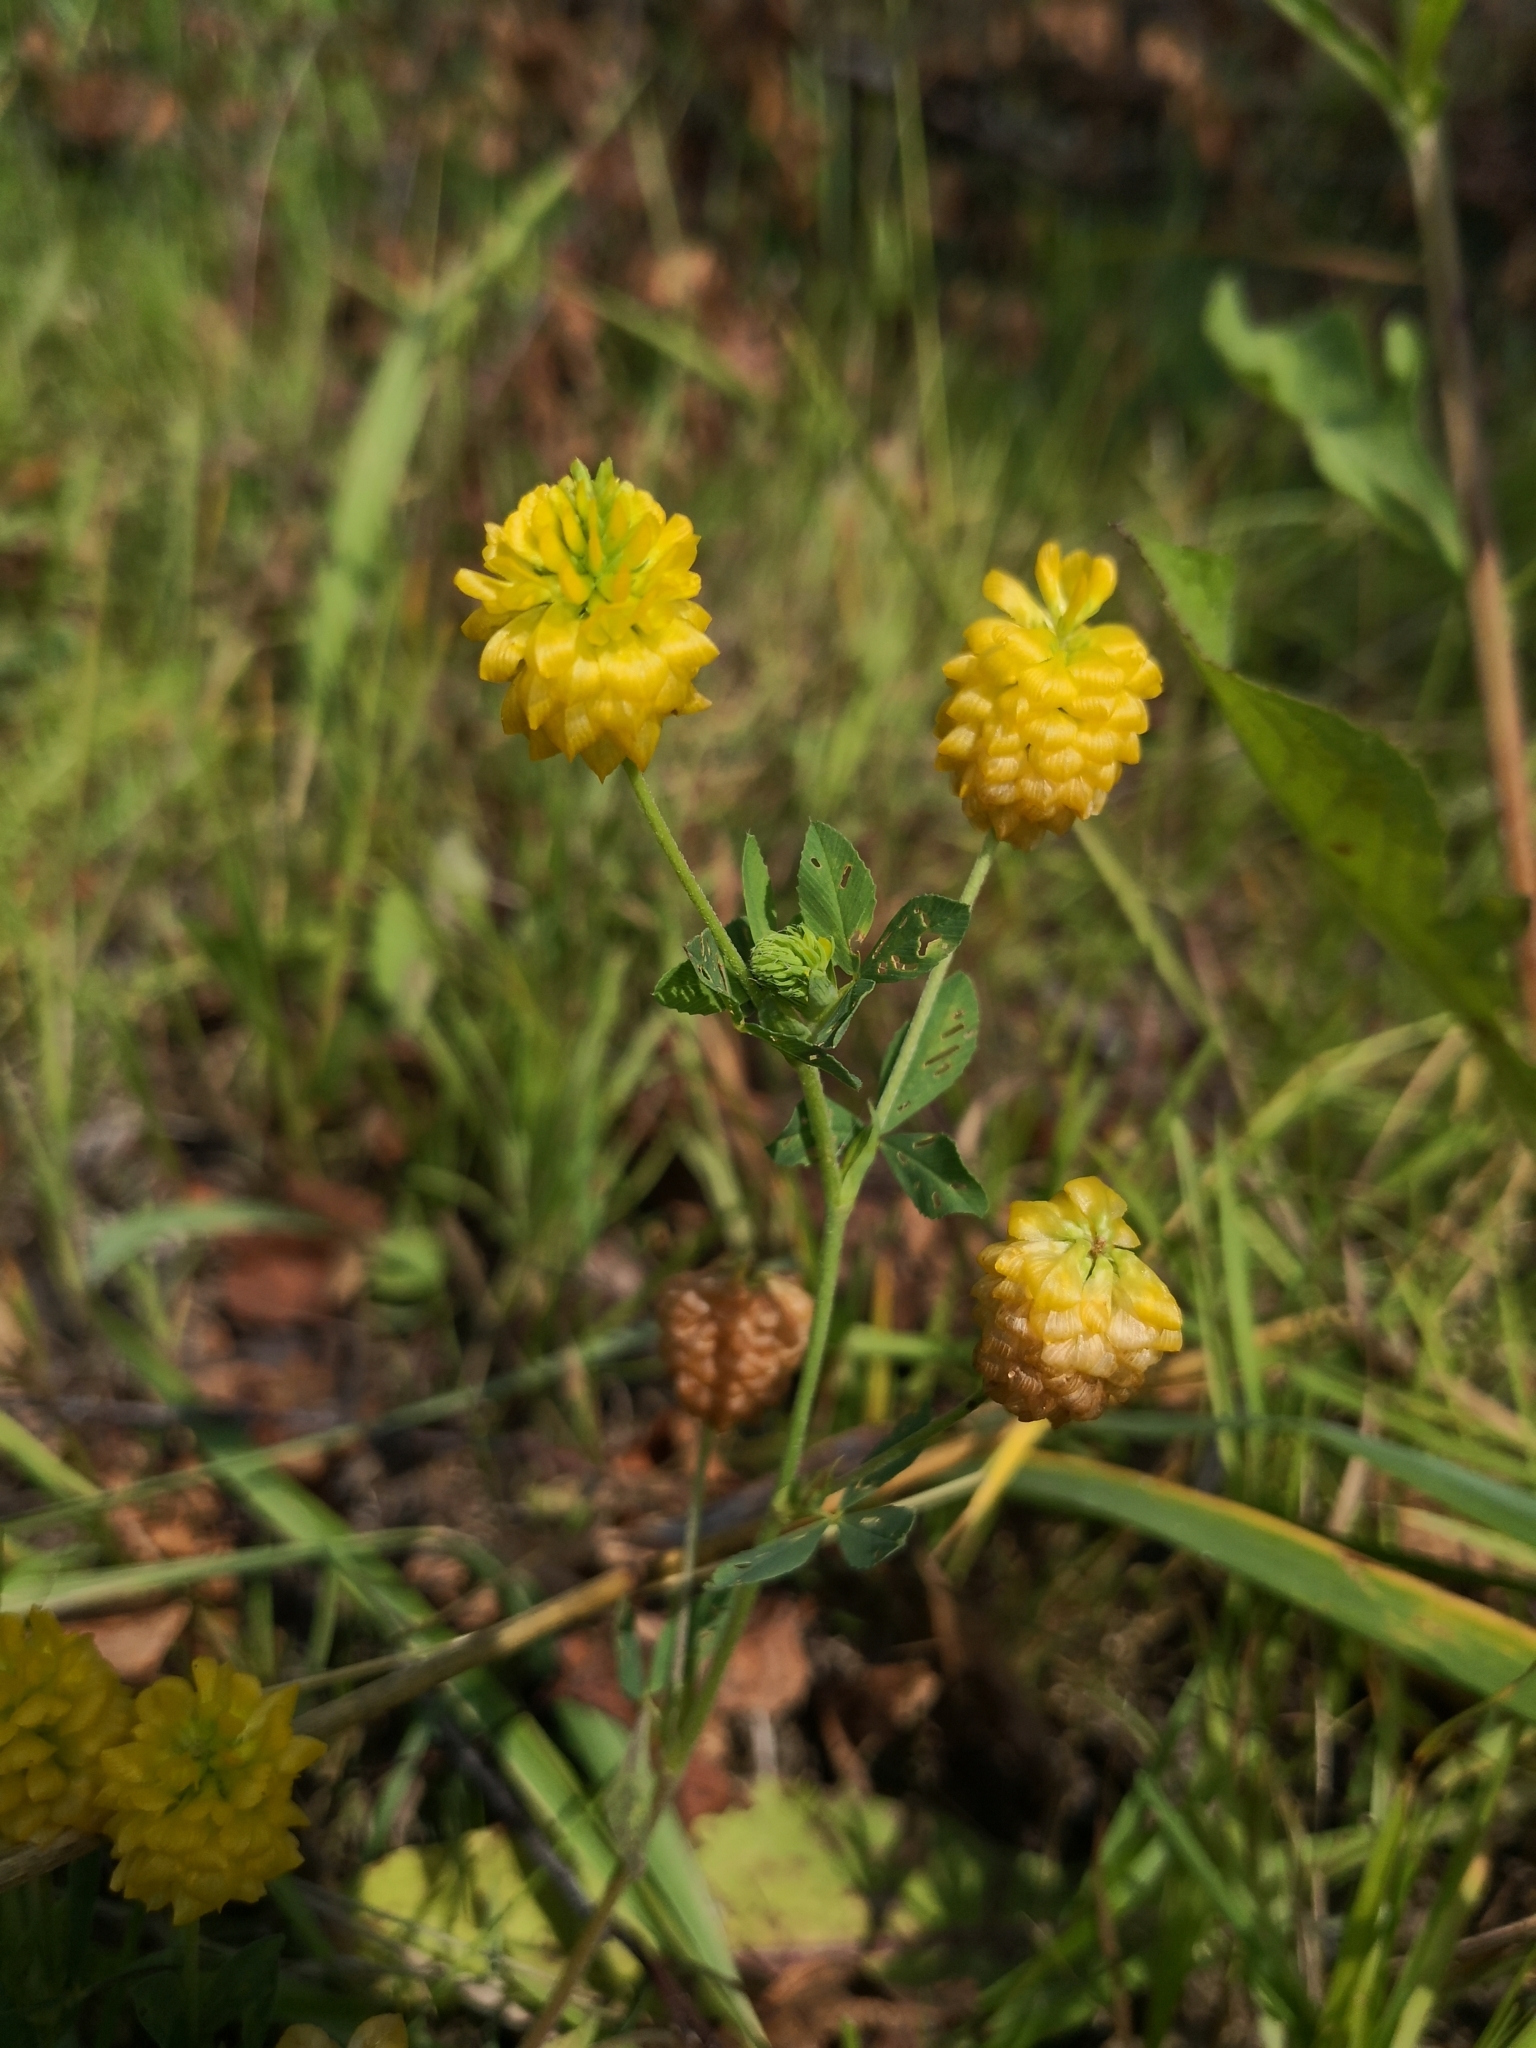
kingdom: Plantae
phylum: Tracheophyta
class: Magnoliopsida
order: Fabales
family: Fabaceae
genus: Trifolium
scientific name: Trifolium aureum
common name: Golden clover
